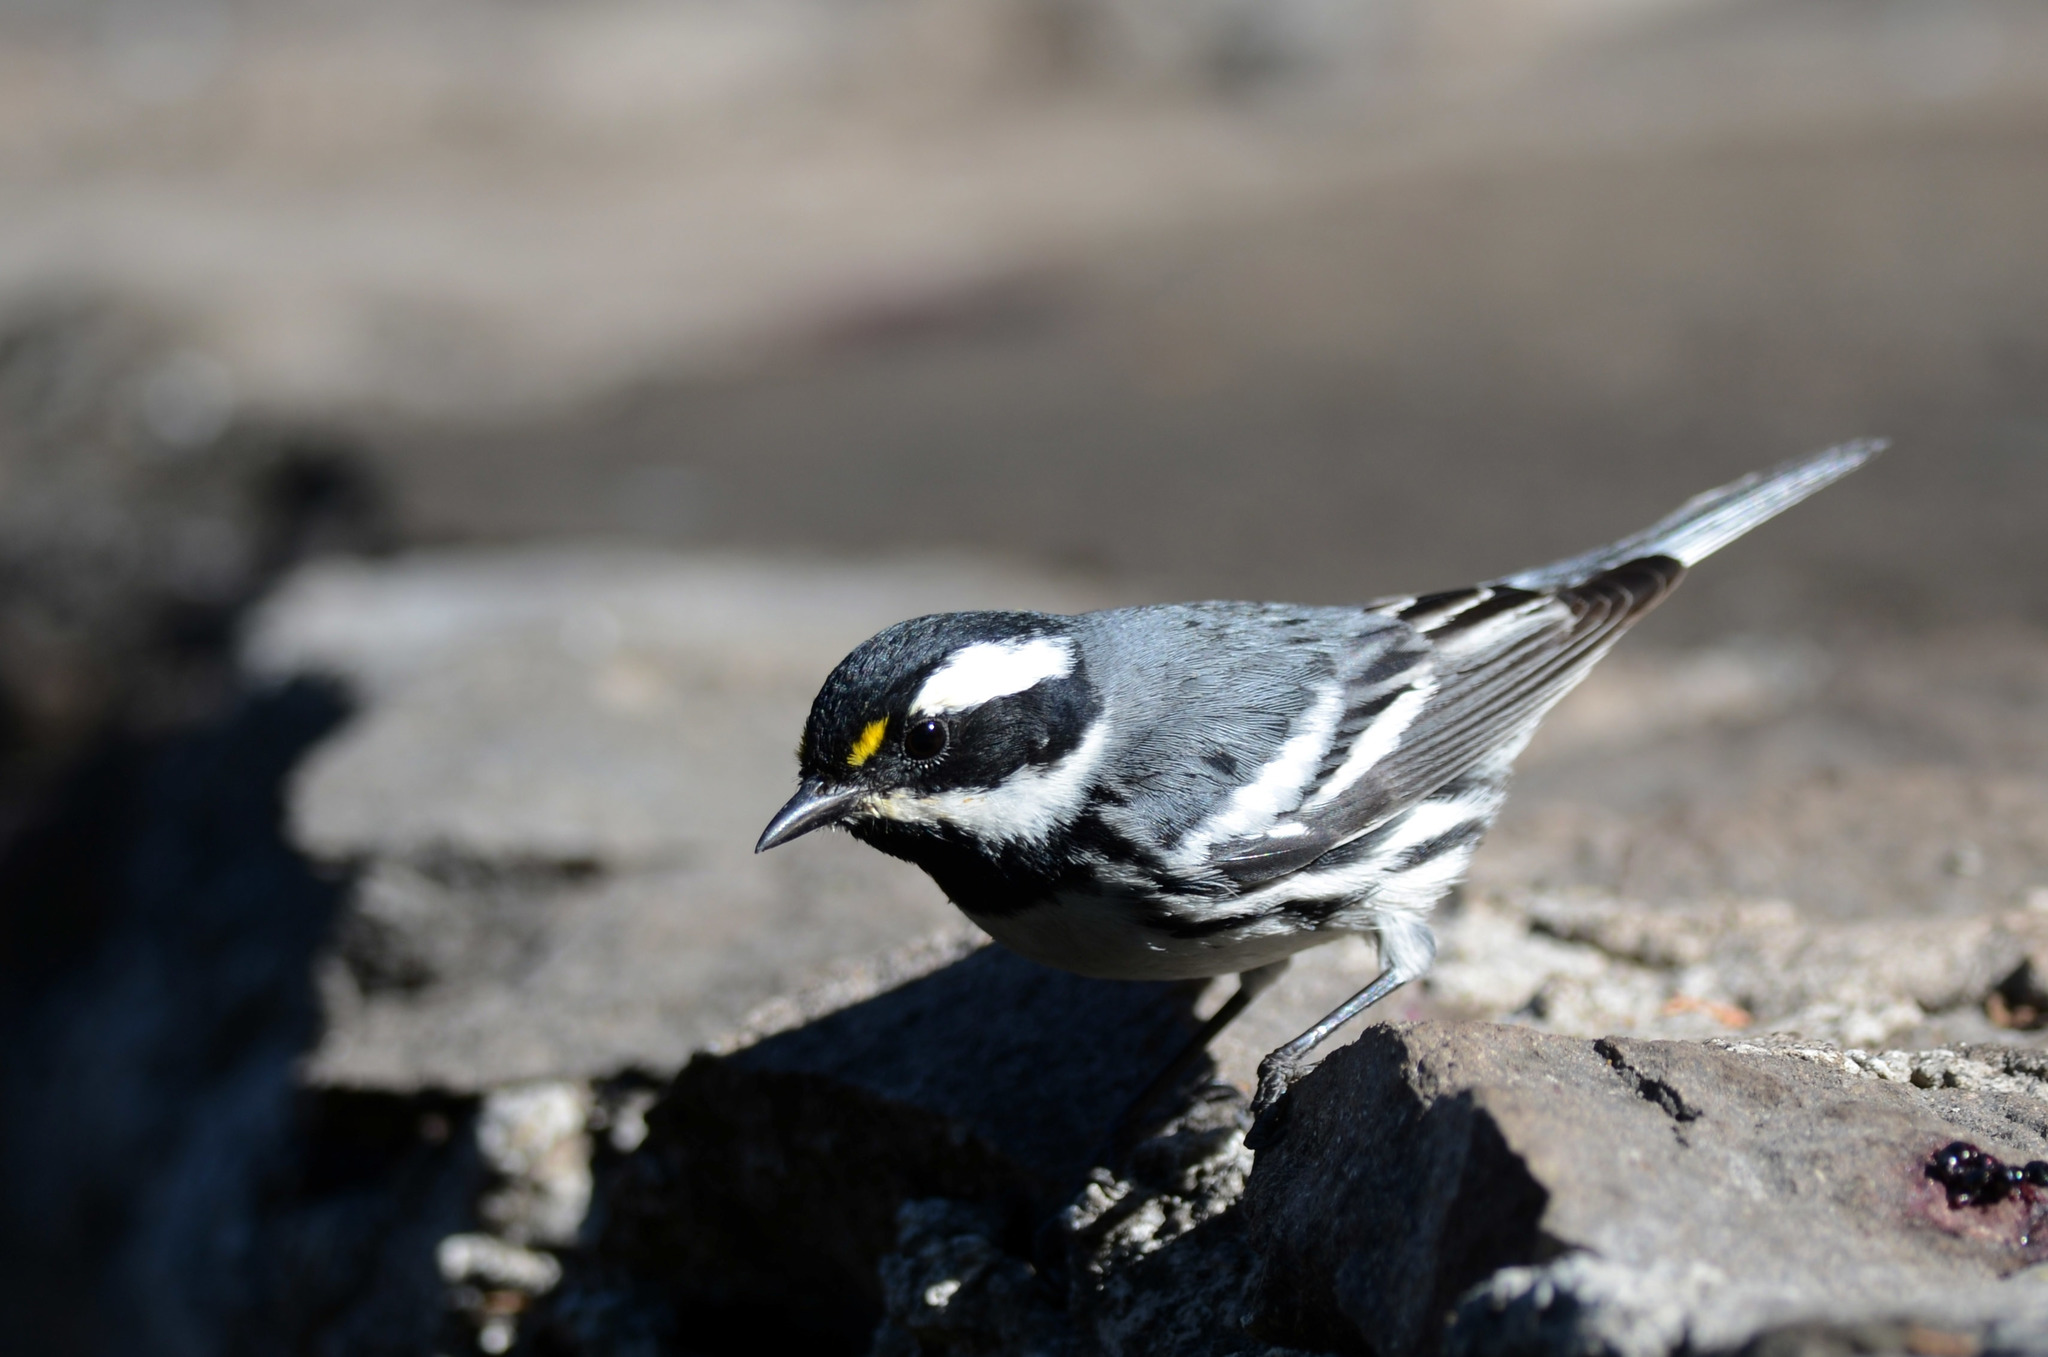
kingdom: Animalia
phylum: Chordata
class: Aves
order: Passeriformes
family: Parulidae
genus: Setophaga
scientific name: Setophaga nigrescens
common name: Black-throated gray warbler
